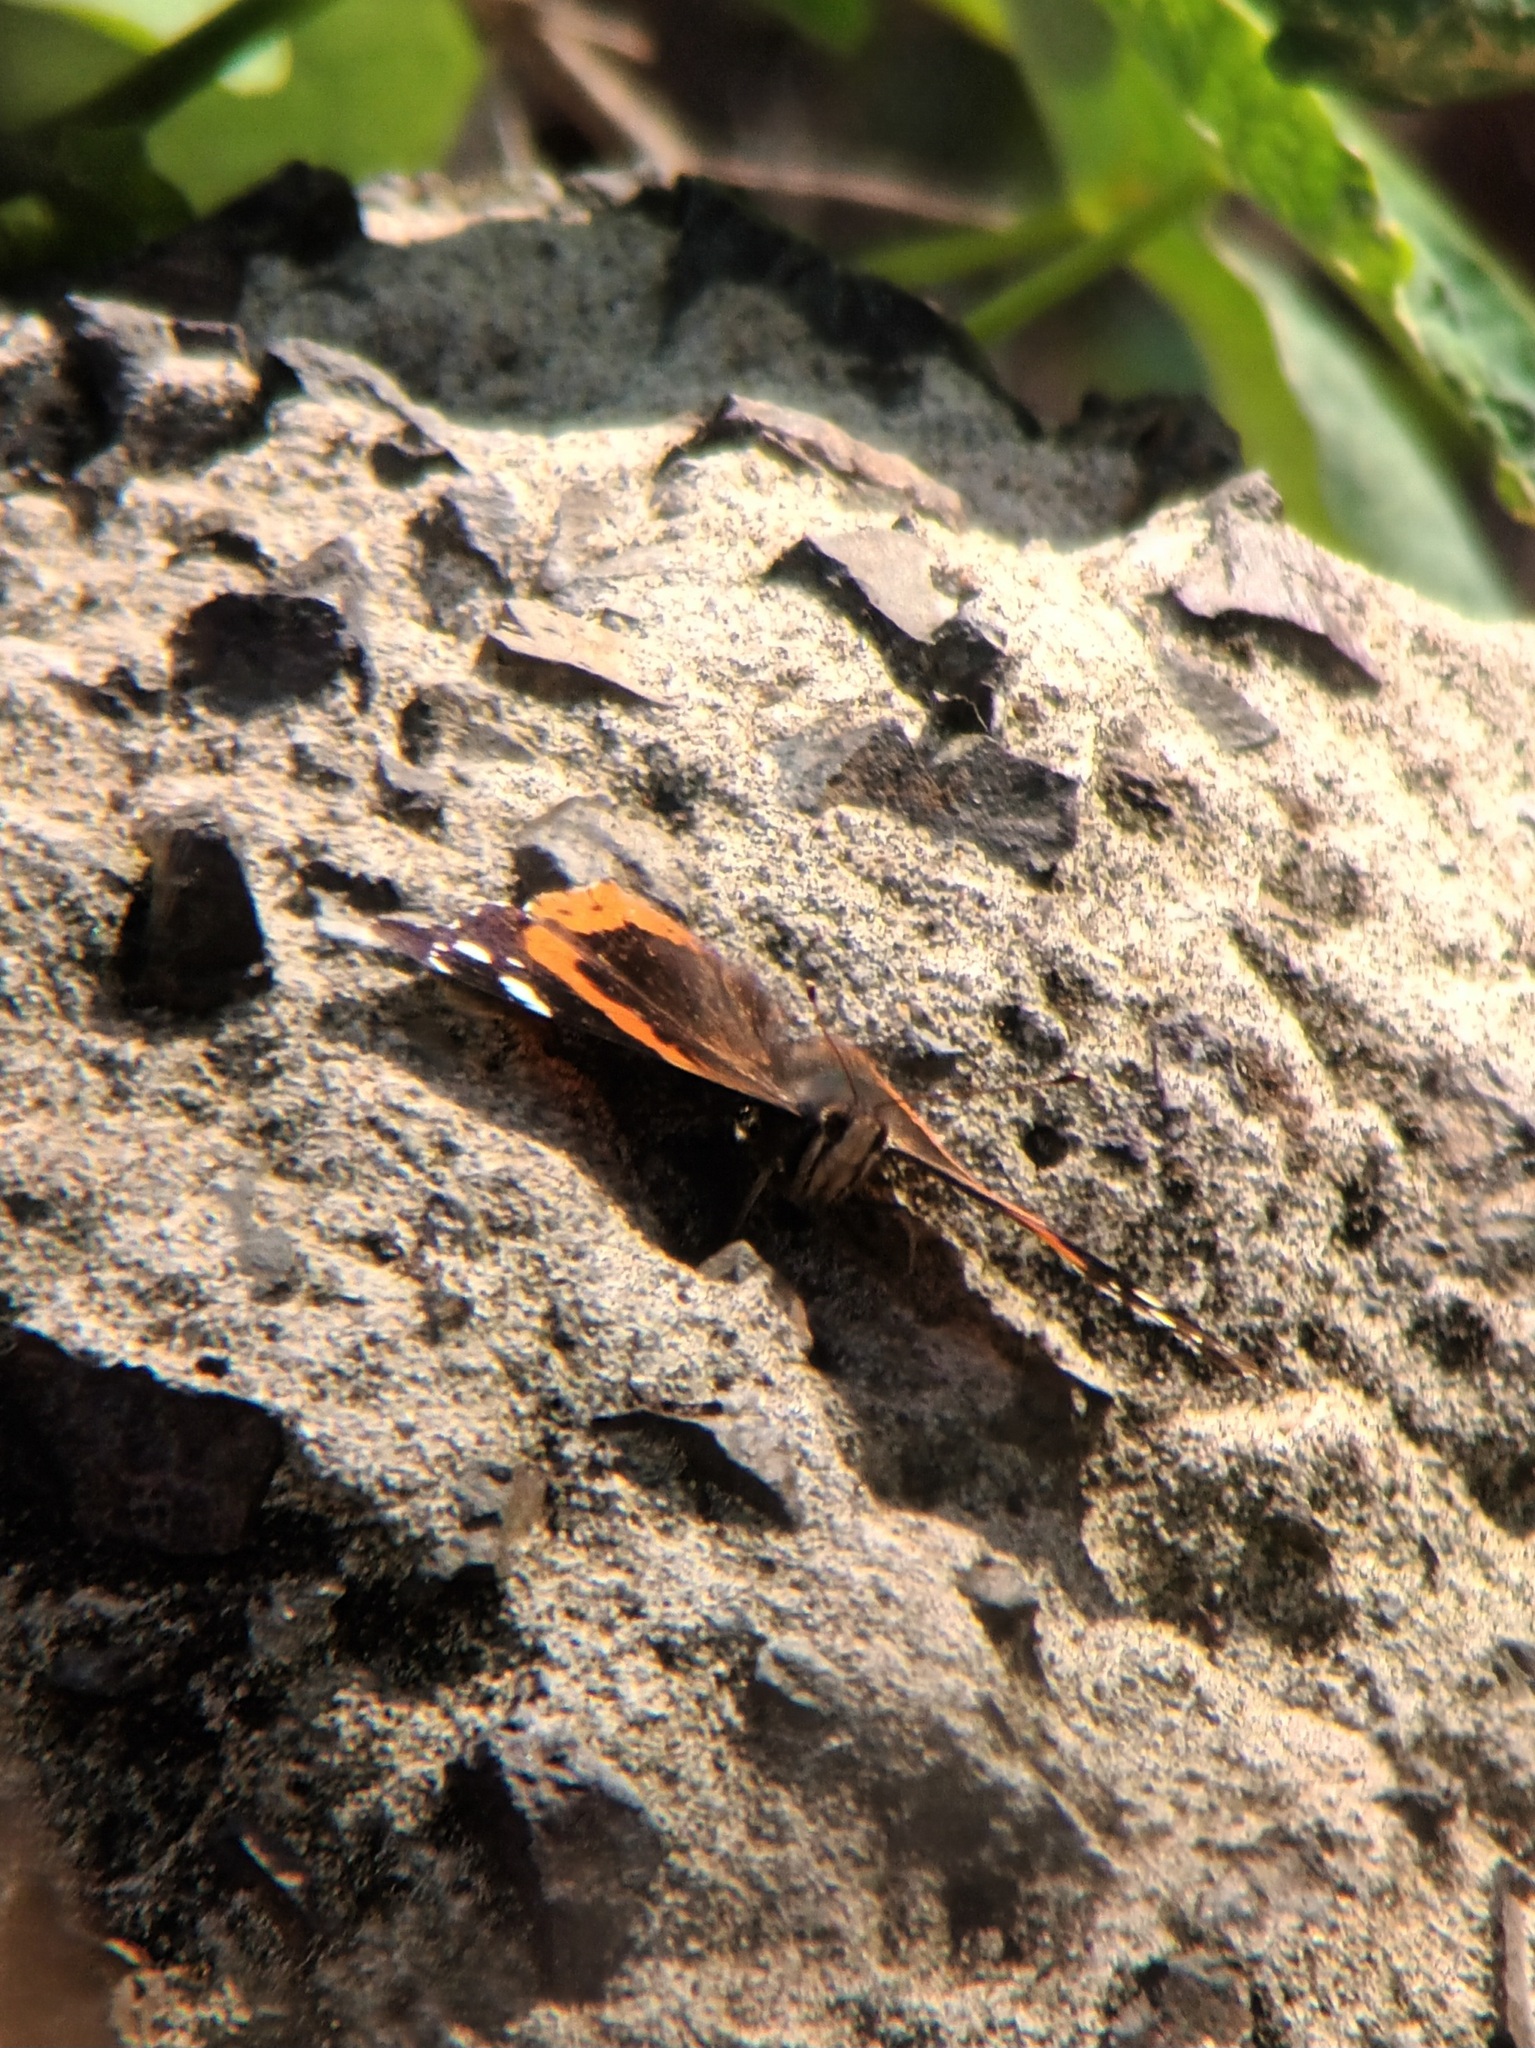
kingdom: Animalia
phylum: Arthropoda
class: Insecta
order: Lepidoptera
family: Nymphalidae
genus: Vanessa
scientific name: Vanessa atalanta
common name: Red admiral
